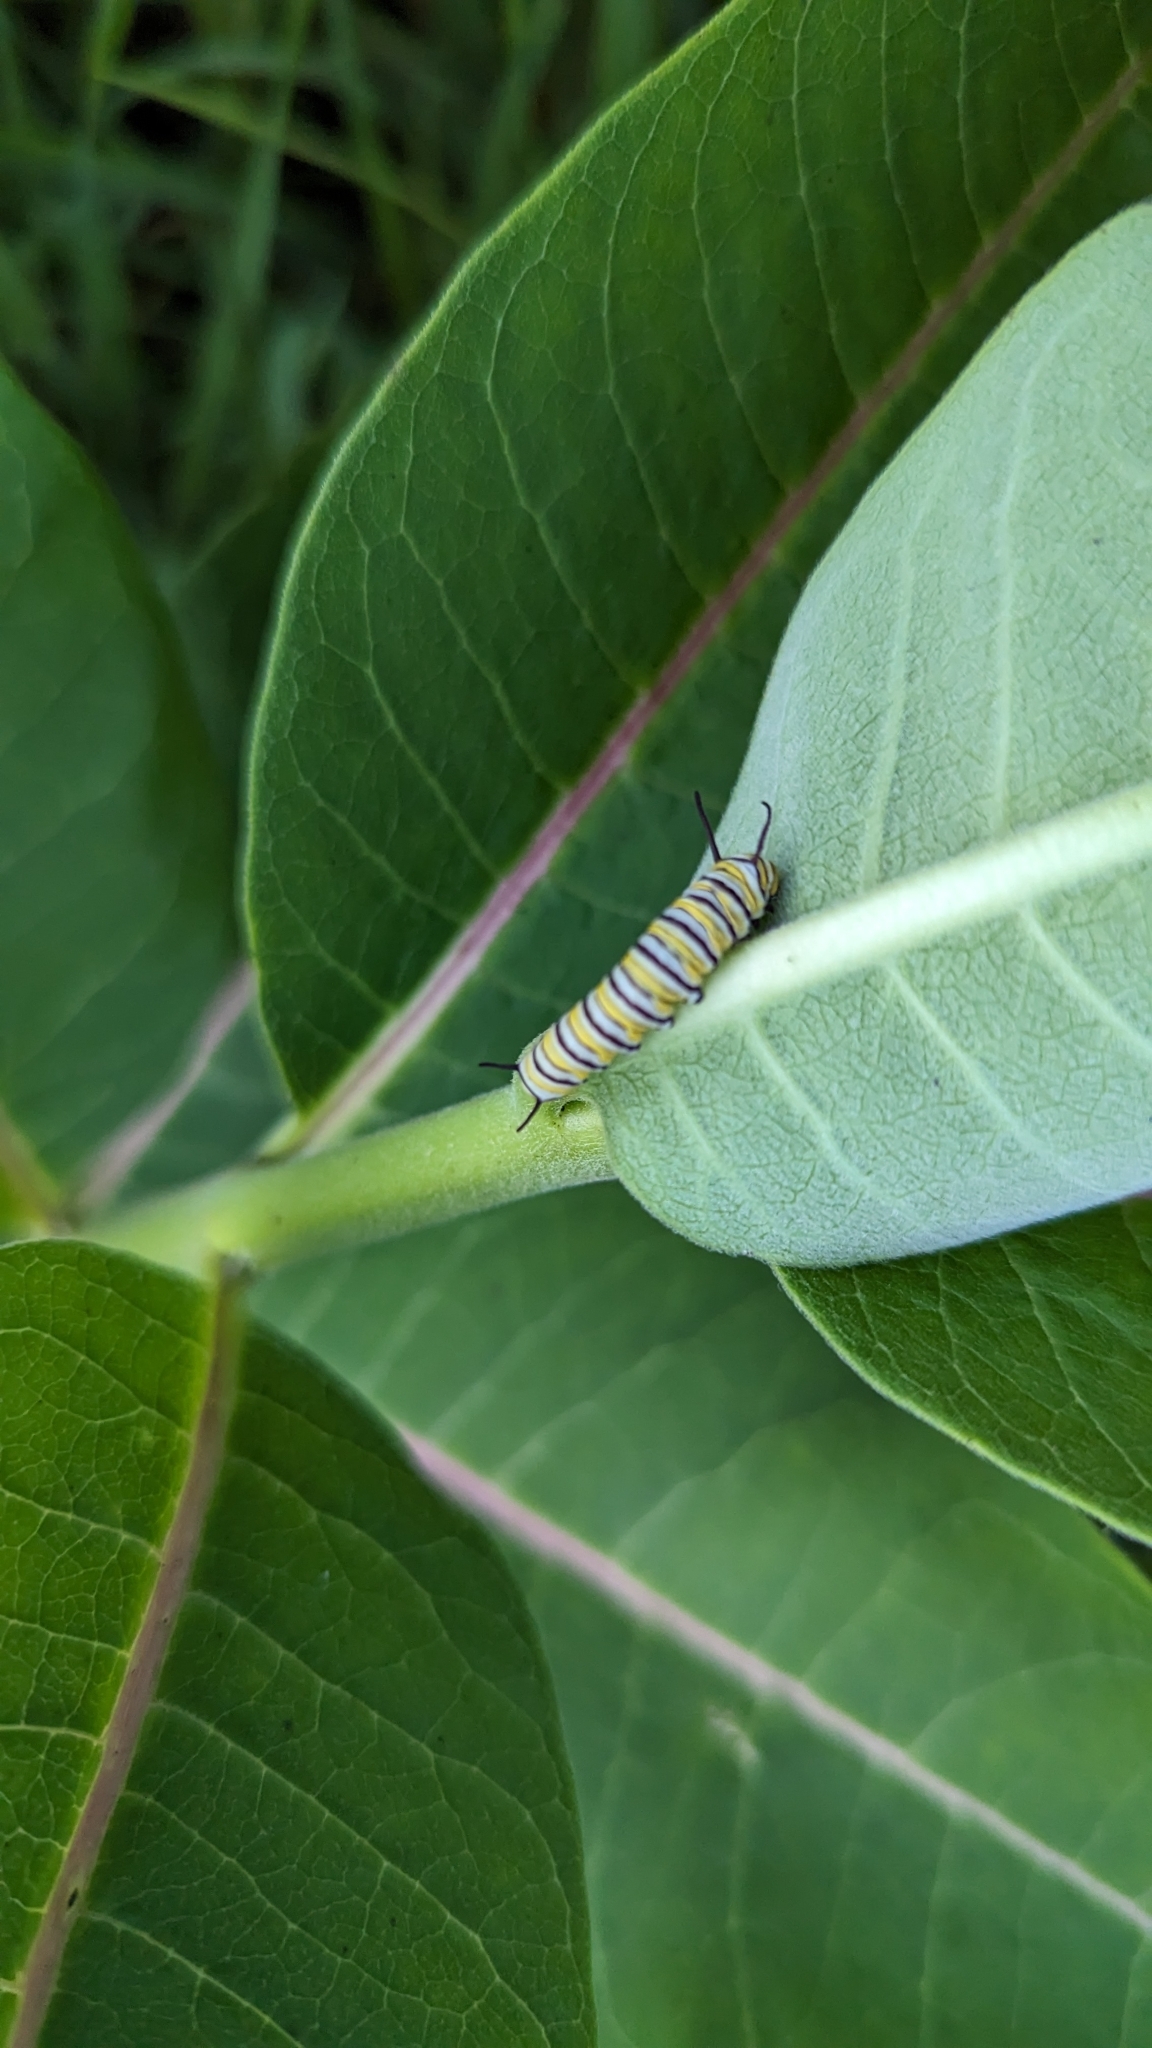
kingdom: Animalia
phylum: Arthropoda
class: Insecta
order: Lepidoptera
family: Nymphalidae
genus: Danaus
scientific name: Danaus plexippus
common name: Monarch
